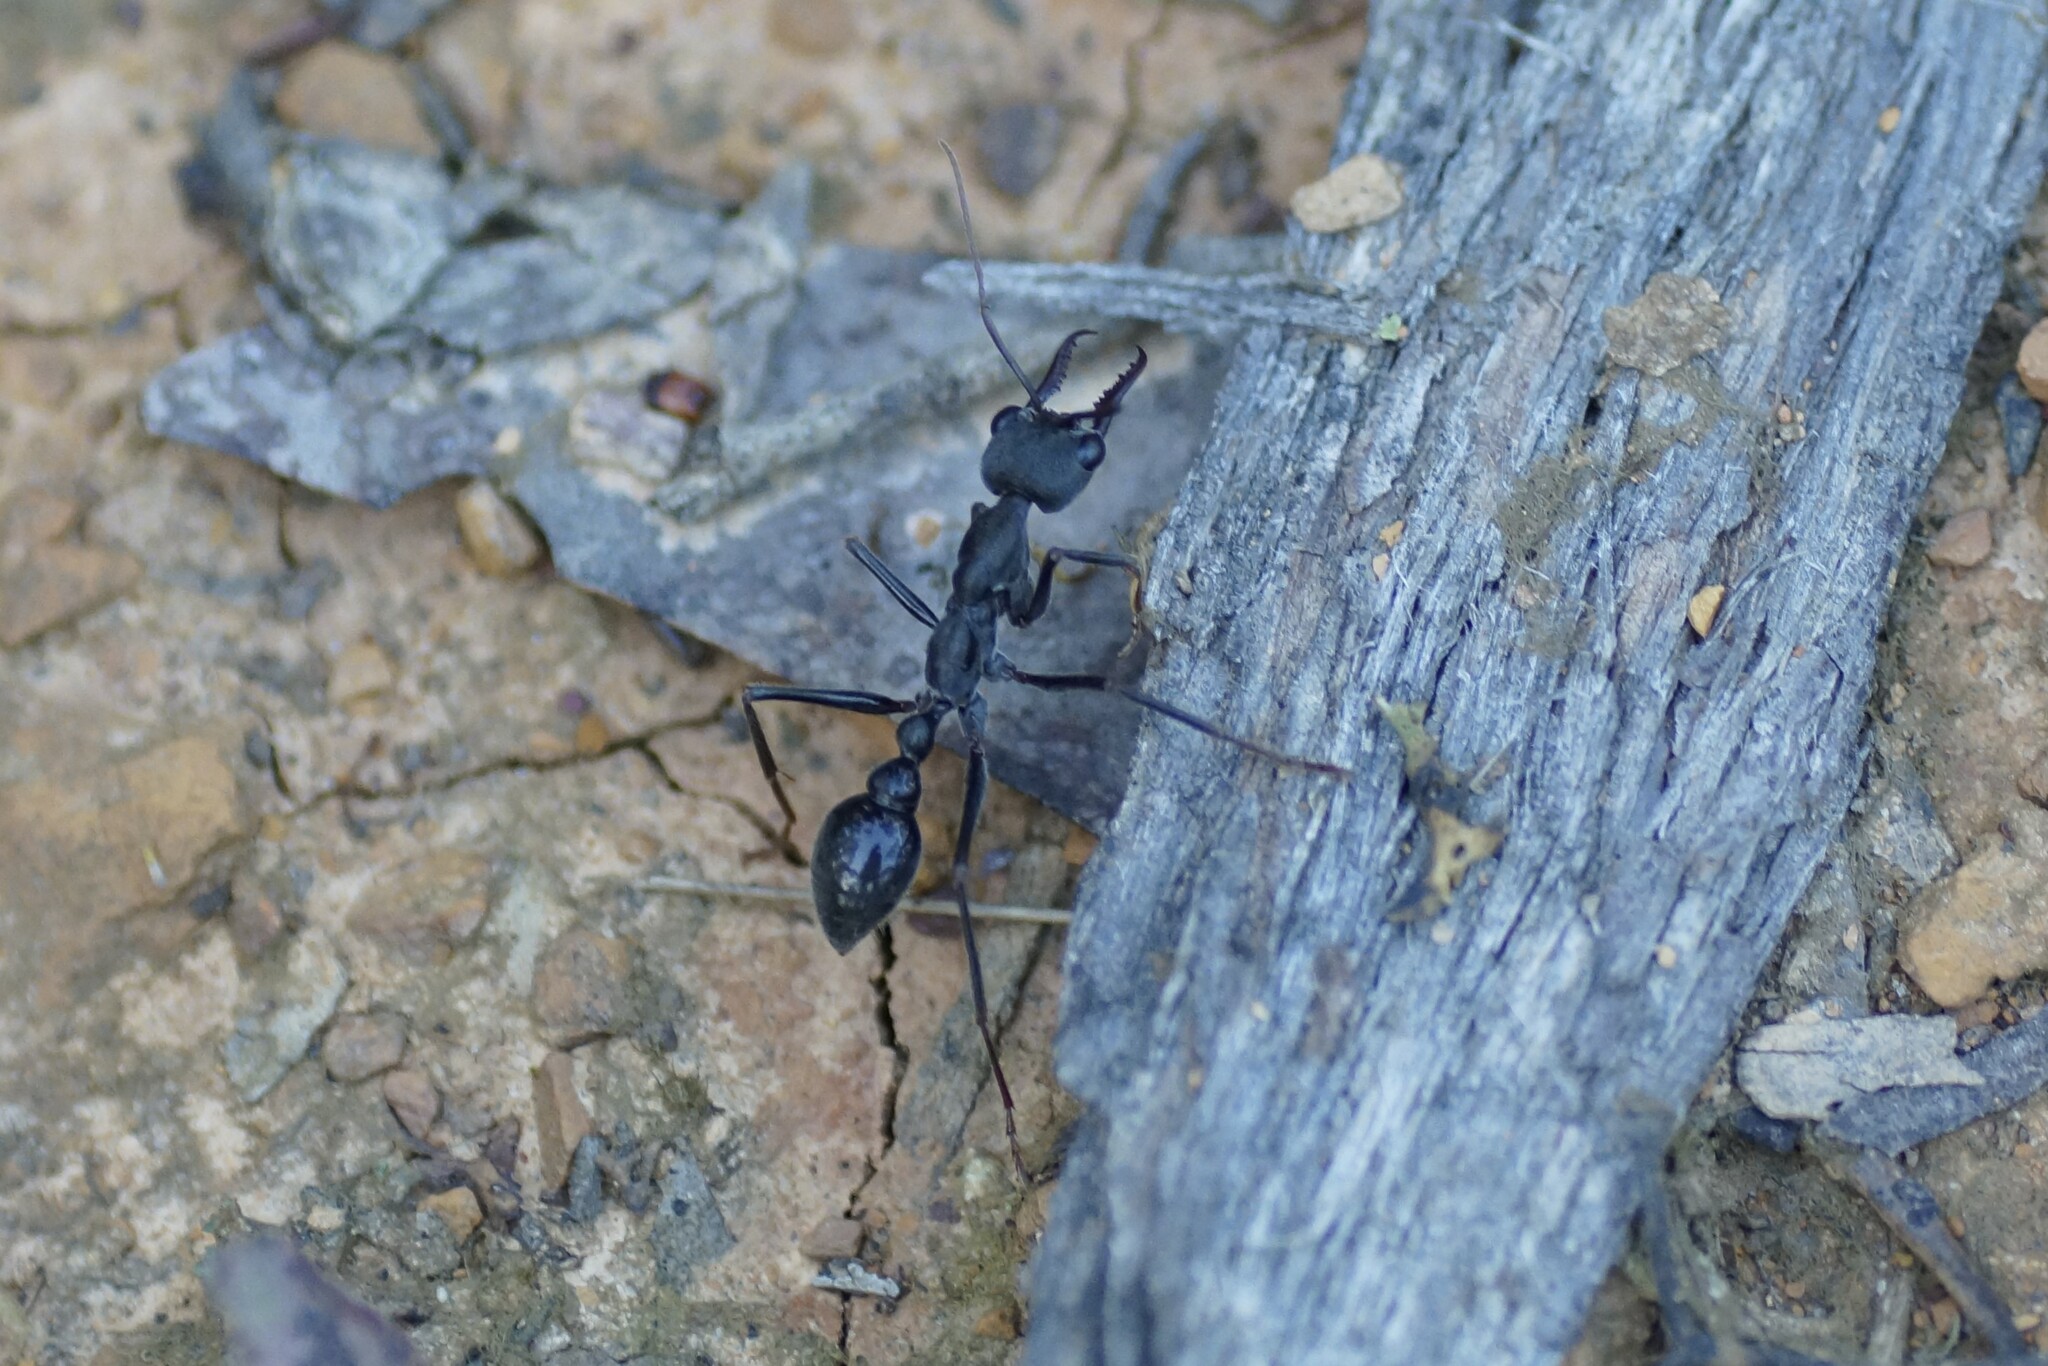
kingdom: Animalia
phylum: Arthropoda
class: Insecta
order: Hymenoptera
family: Formicidae
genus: Myrmecia
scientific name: Myrmecia pyriformis
